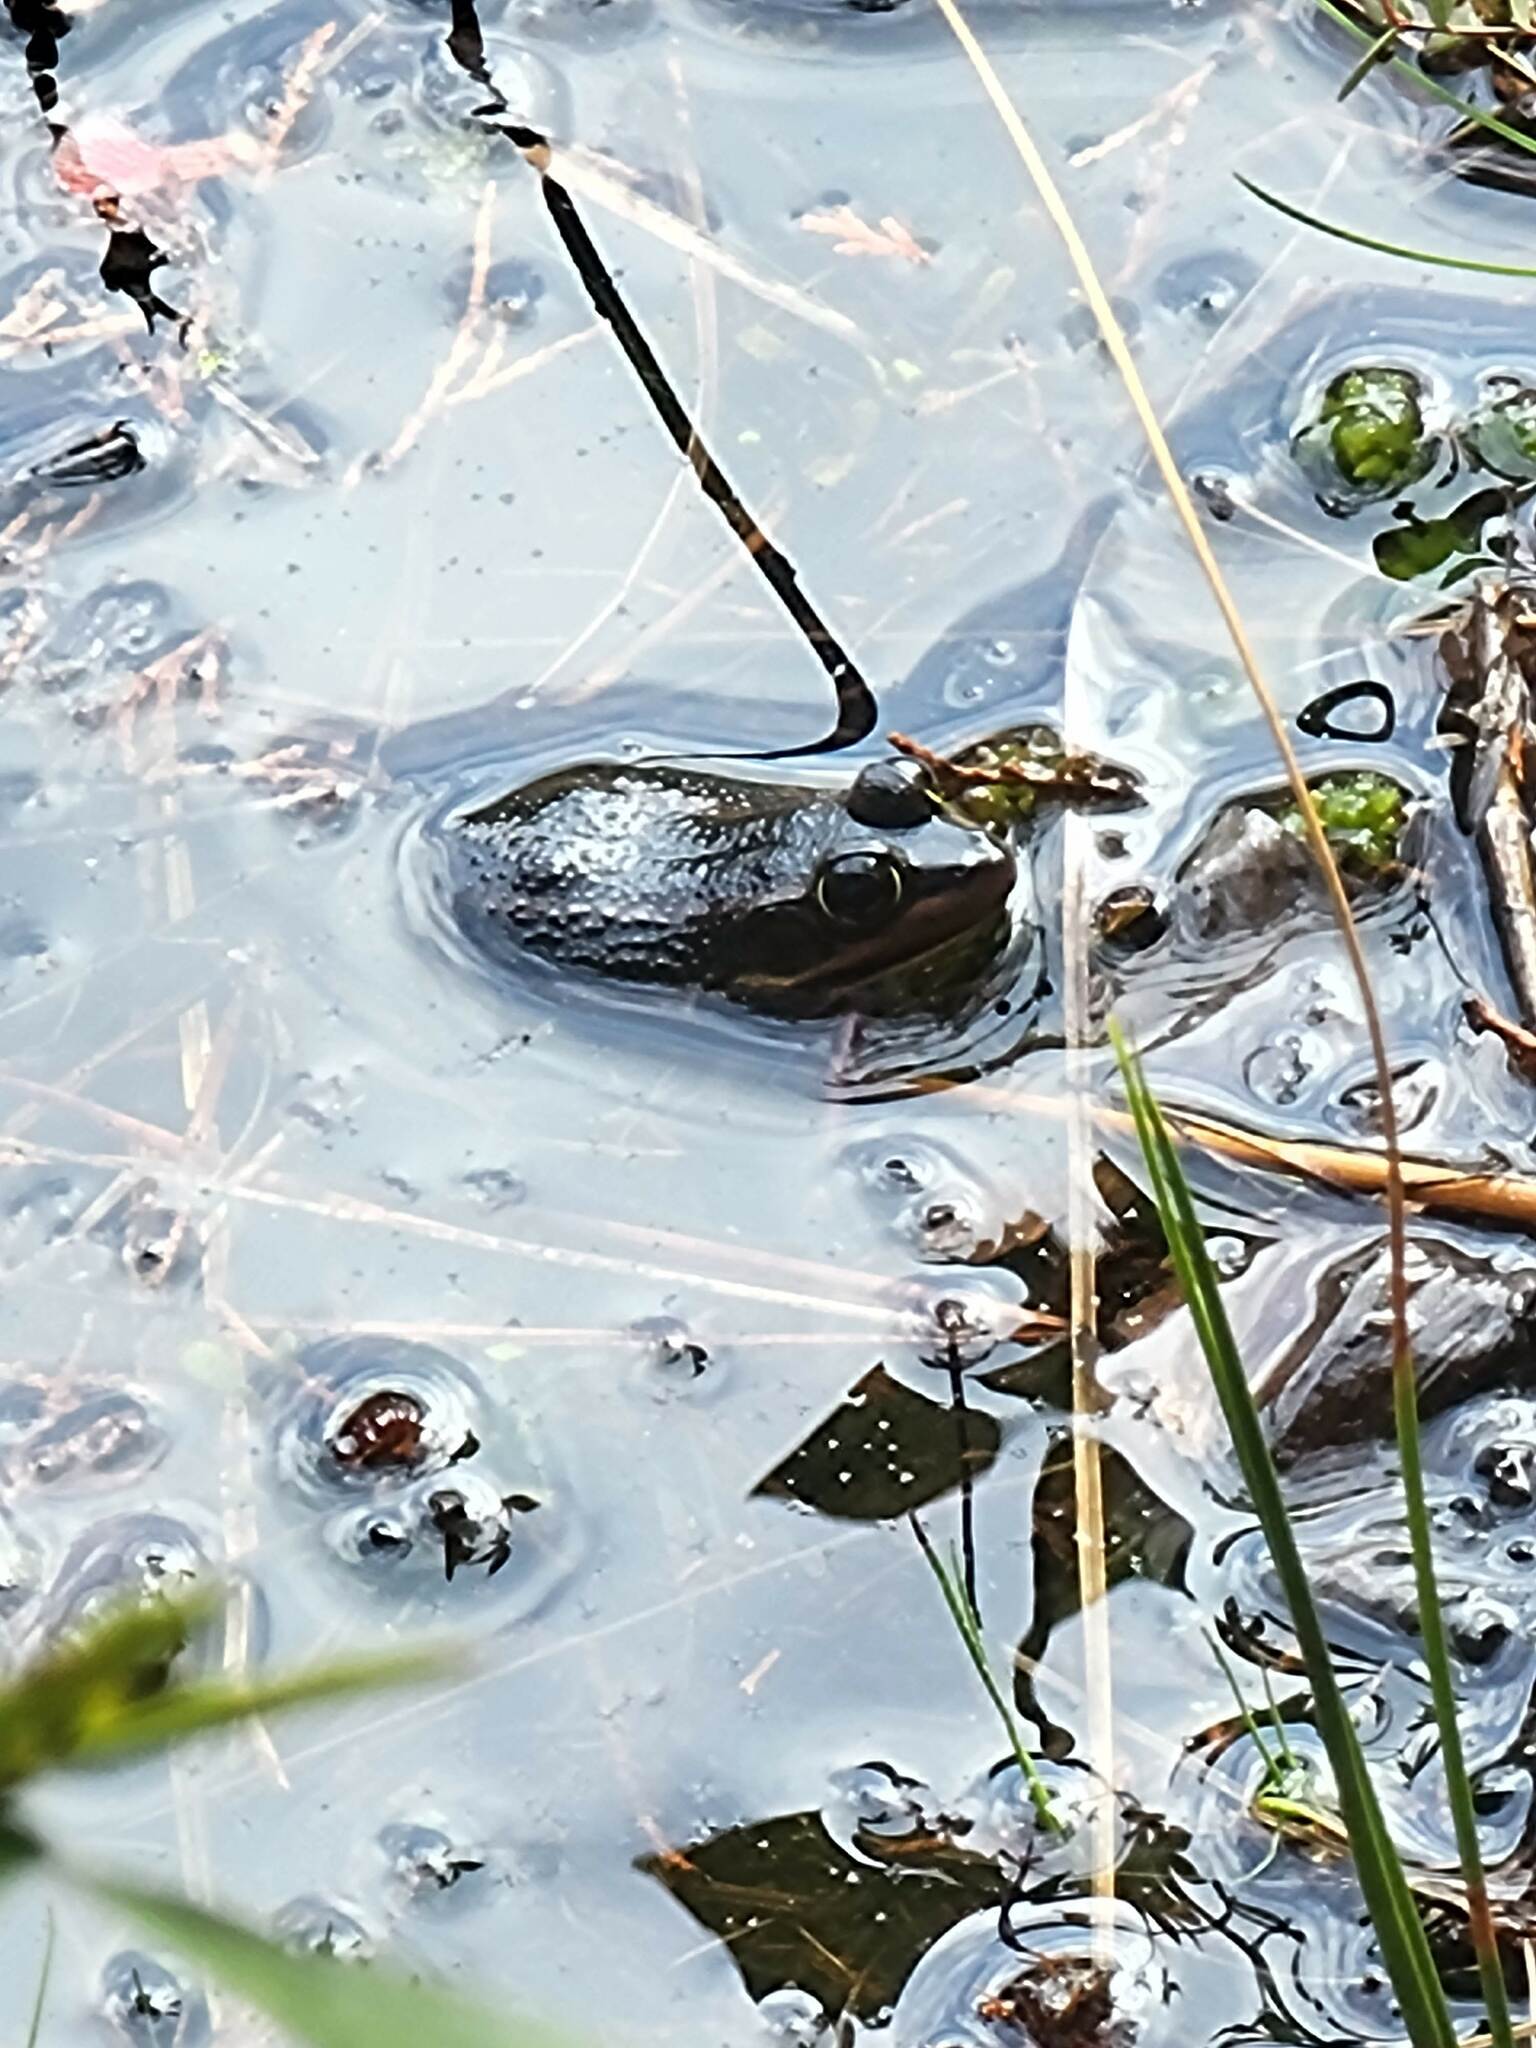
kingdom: Animalia
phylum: Chordata
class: Amphibia
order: Anura
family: Ranidae
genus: Lithobates
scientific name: Lithobates virgatipes
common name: Carpenter frog
